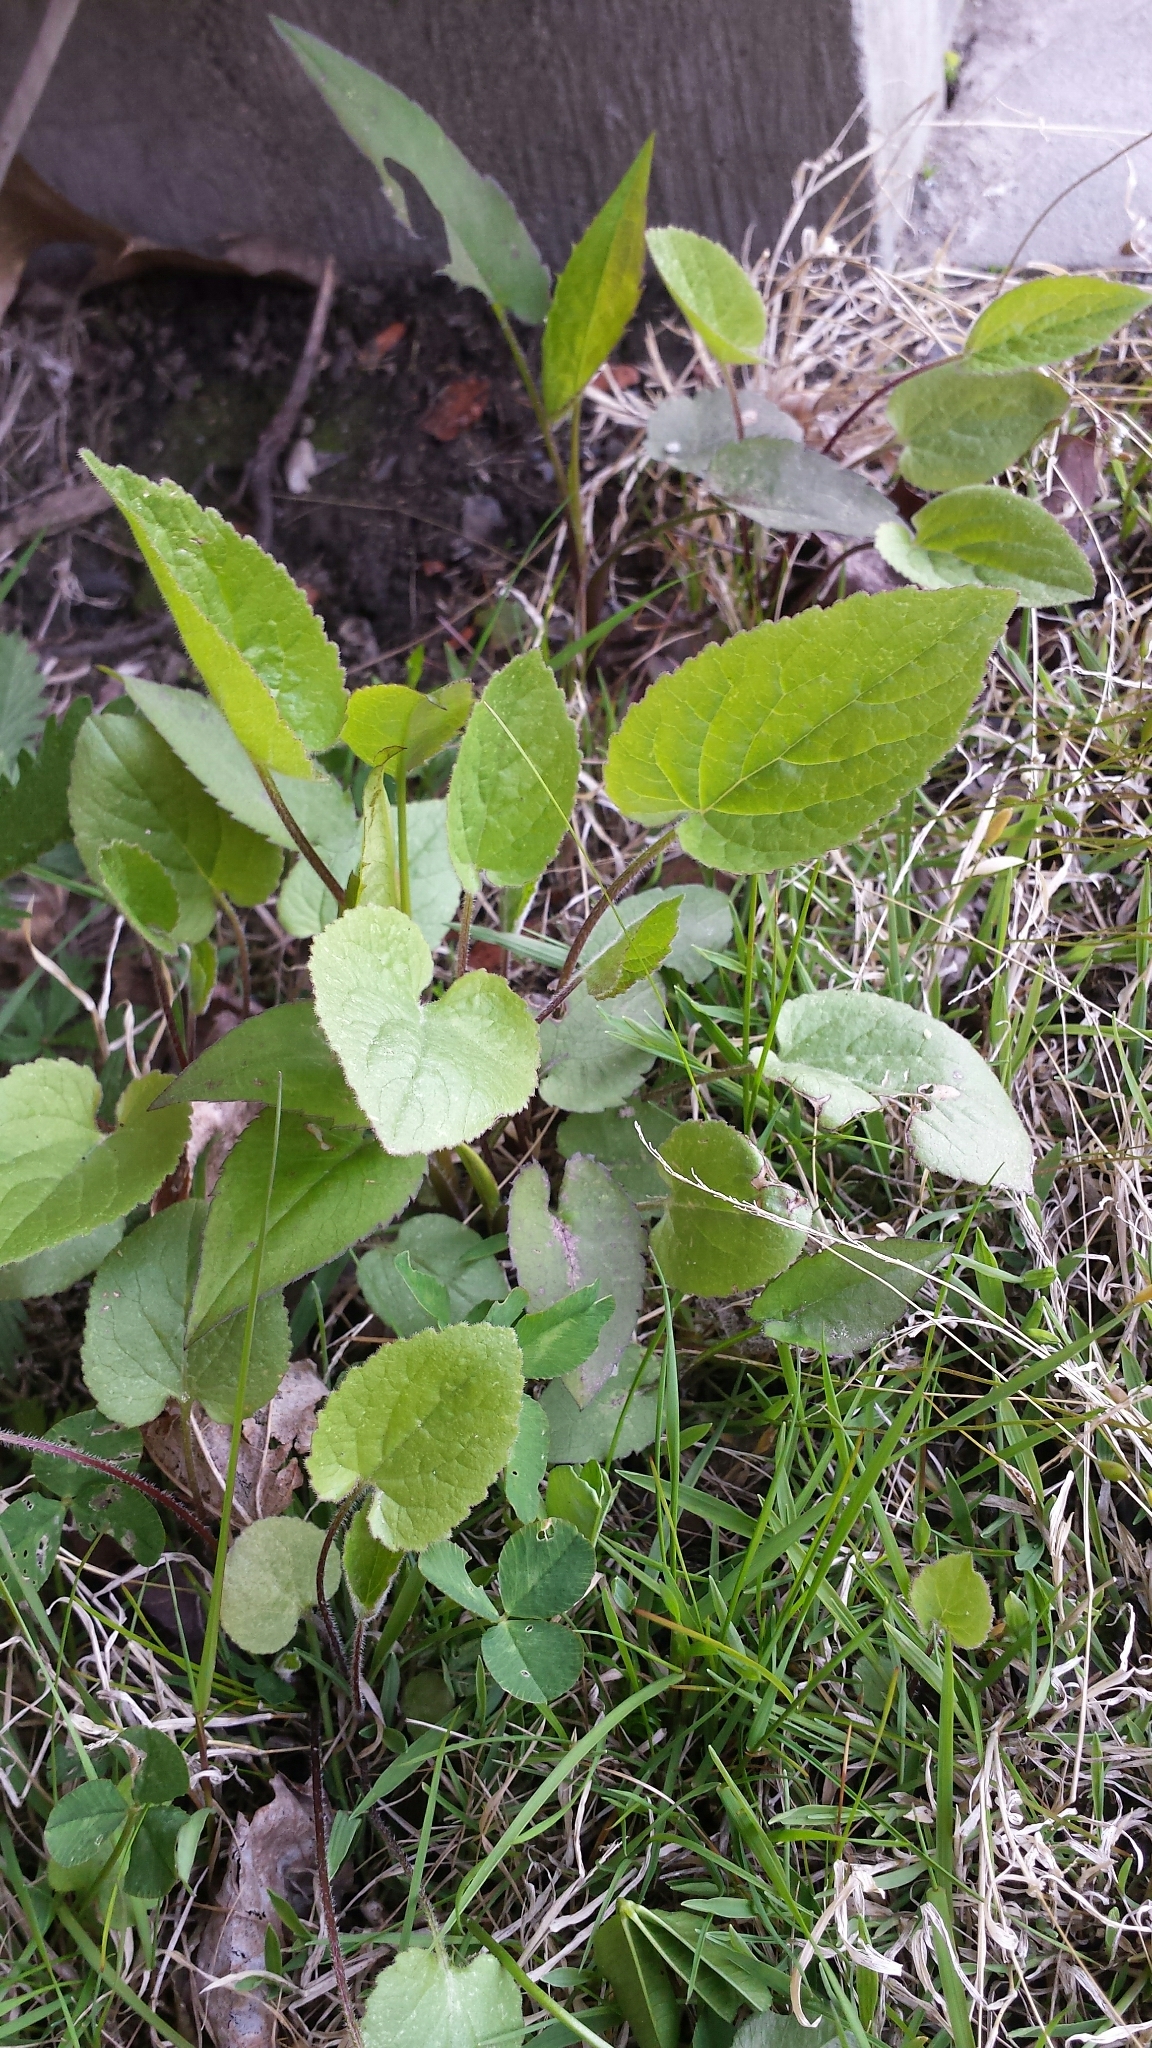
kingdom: Plantae
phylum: Tracheophyta
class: Magnoliopsida
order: Asterales
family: Campanulaceae
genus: Campanula
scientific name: Campanula rapunculoides
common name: Creeping bellflower
